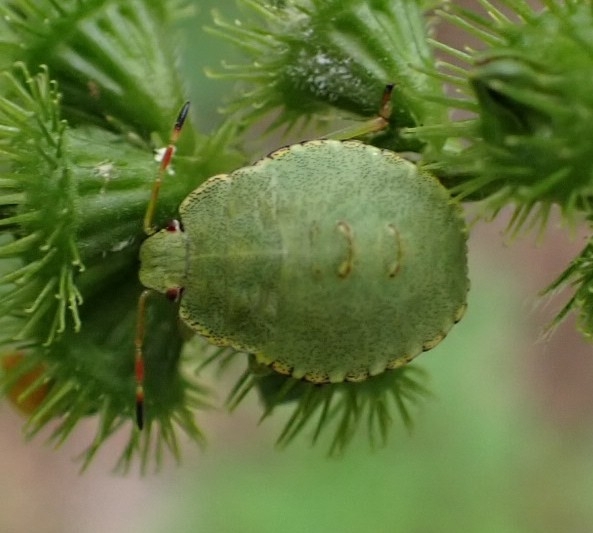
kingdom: Animalia
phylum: Arthropoda
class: Insecta
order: Hemiptera
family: Pentatomidae
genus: Palomena
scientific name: Palomena prasina
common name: Green shieldbug
